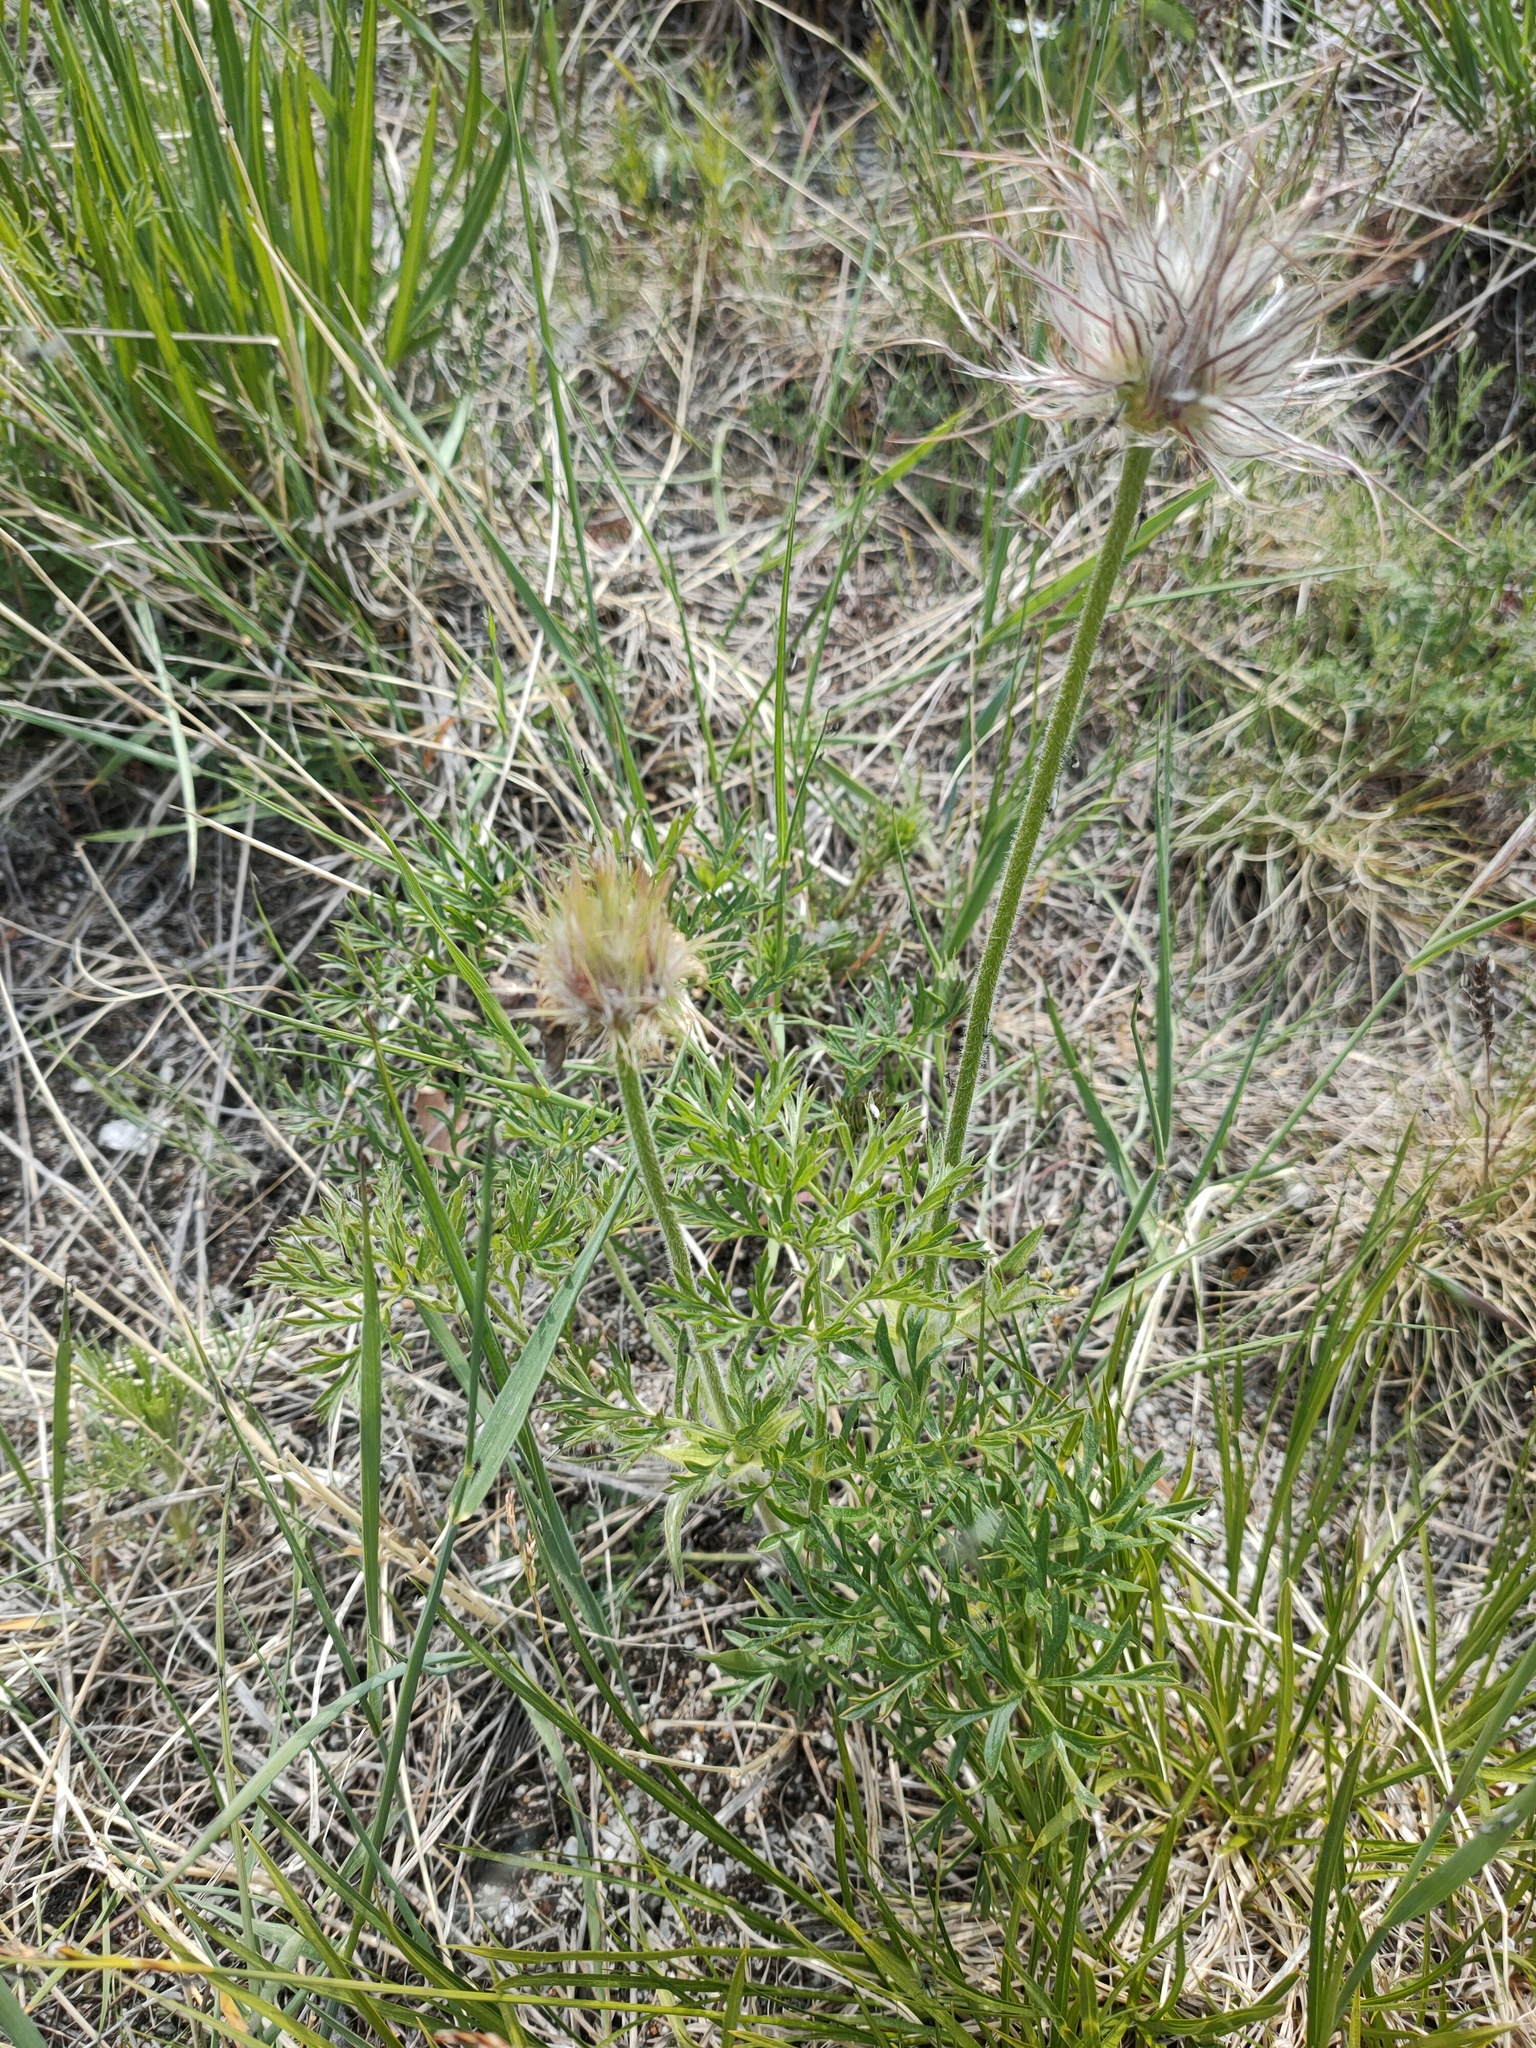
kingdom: Plantae
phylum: Tracheophyta
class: Magnoliopsida
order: Ranunculales
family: Ranunculaceae
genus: Pulsatilla
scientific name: Pulsatilla turczaninovii
